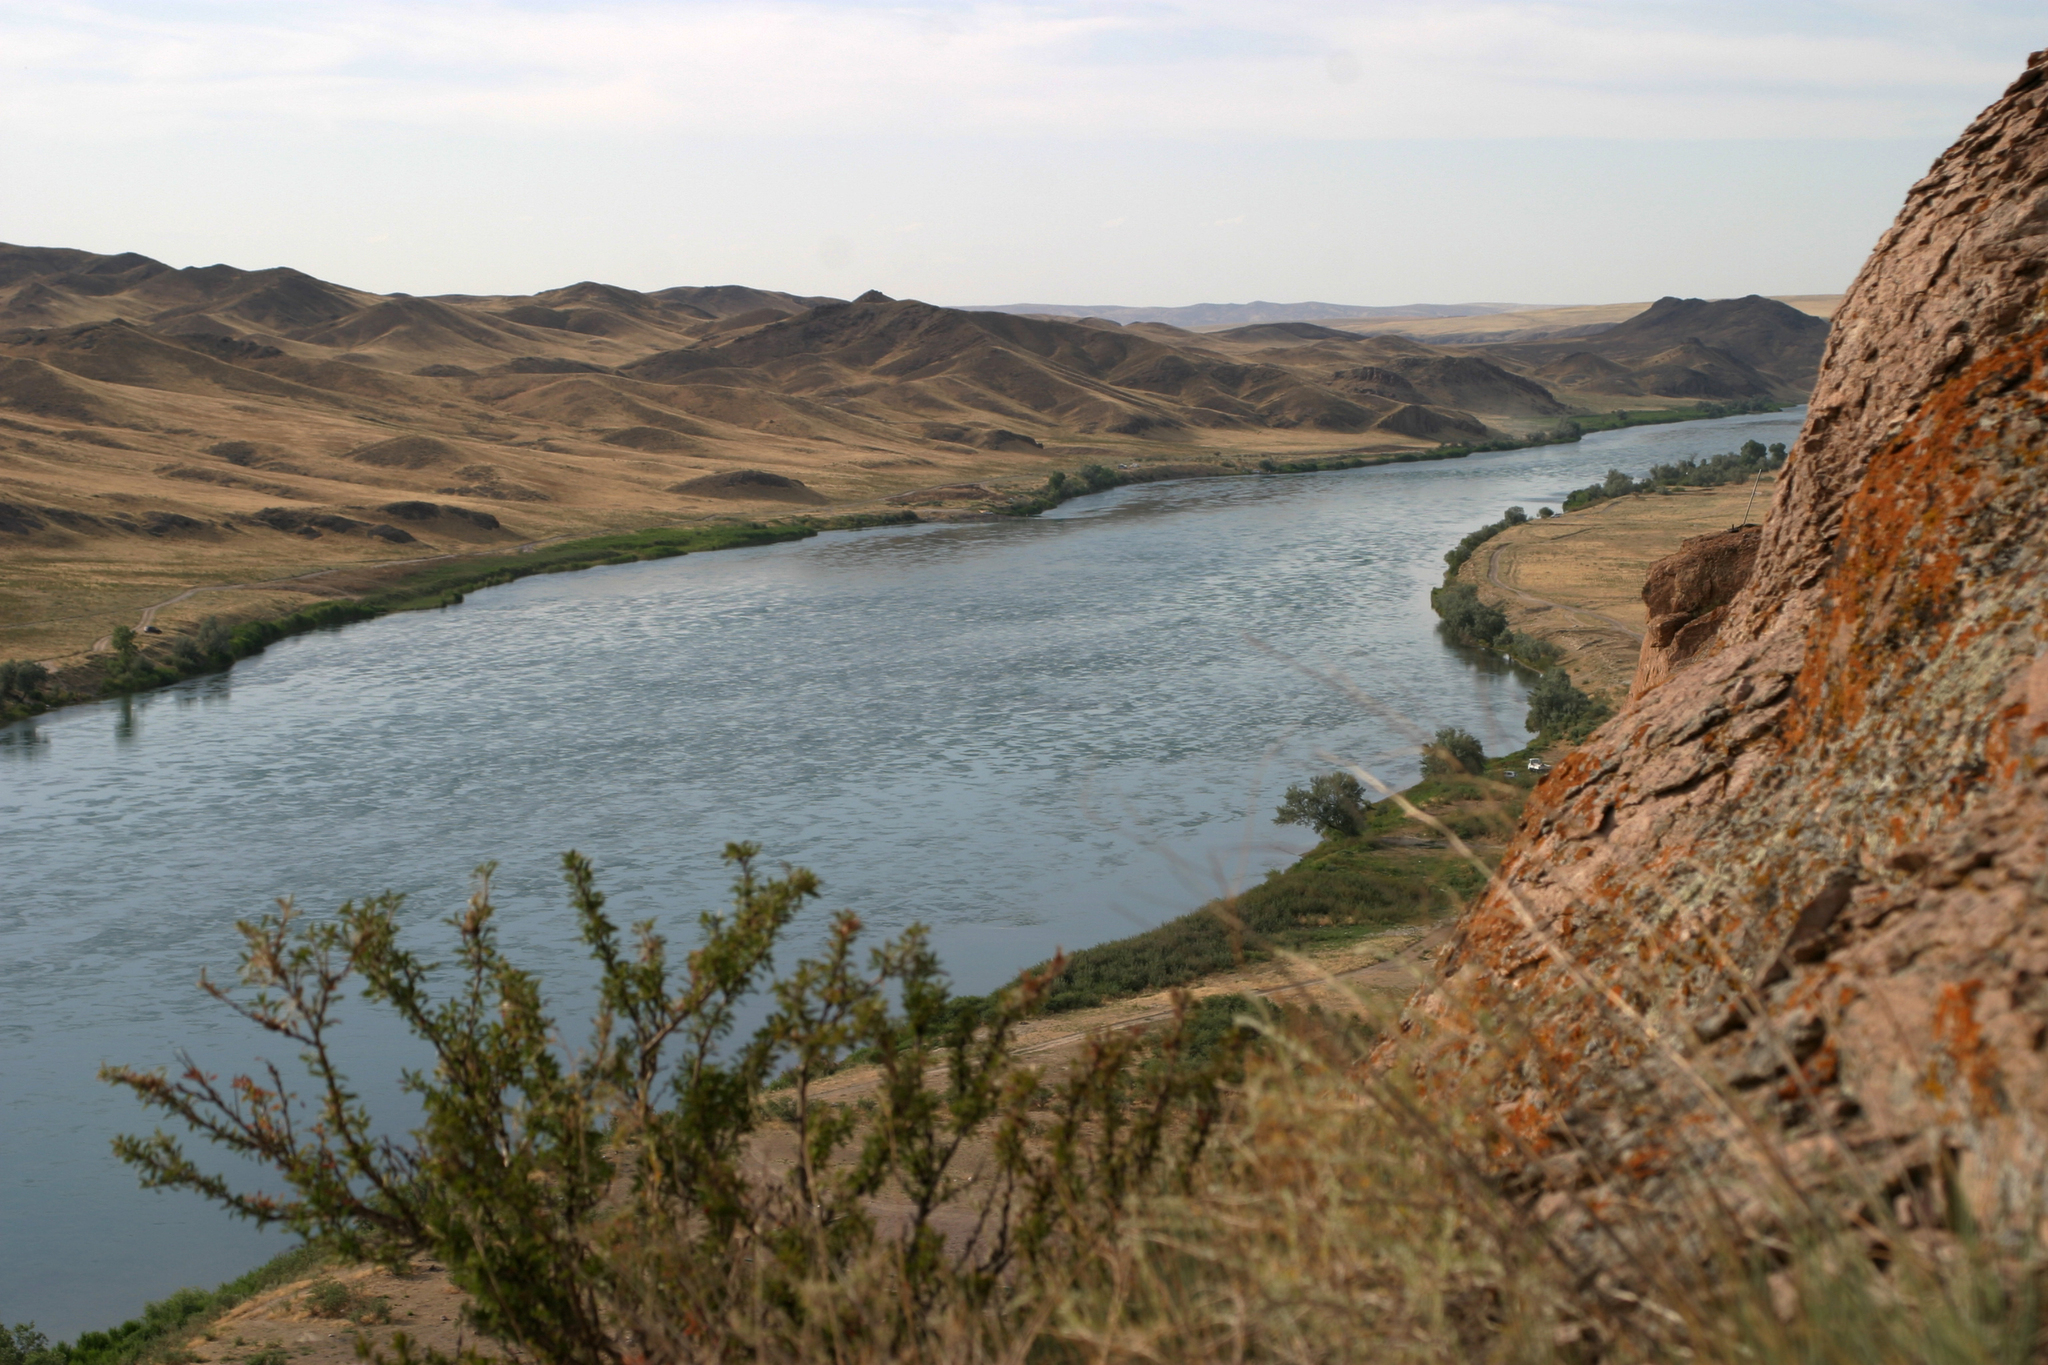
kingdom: Plantae
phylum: Tracheophyta
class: Magnoliopsida
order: Rosales
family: Rosaceae
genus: Prunus
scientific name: Prunus prostrata
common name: Mountain cherry
